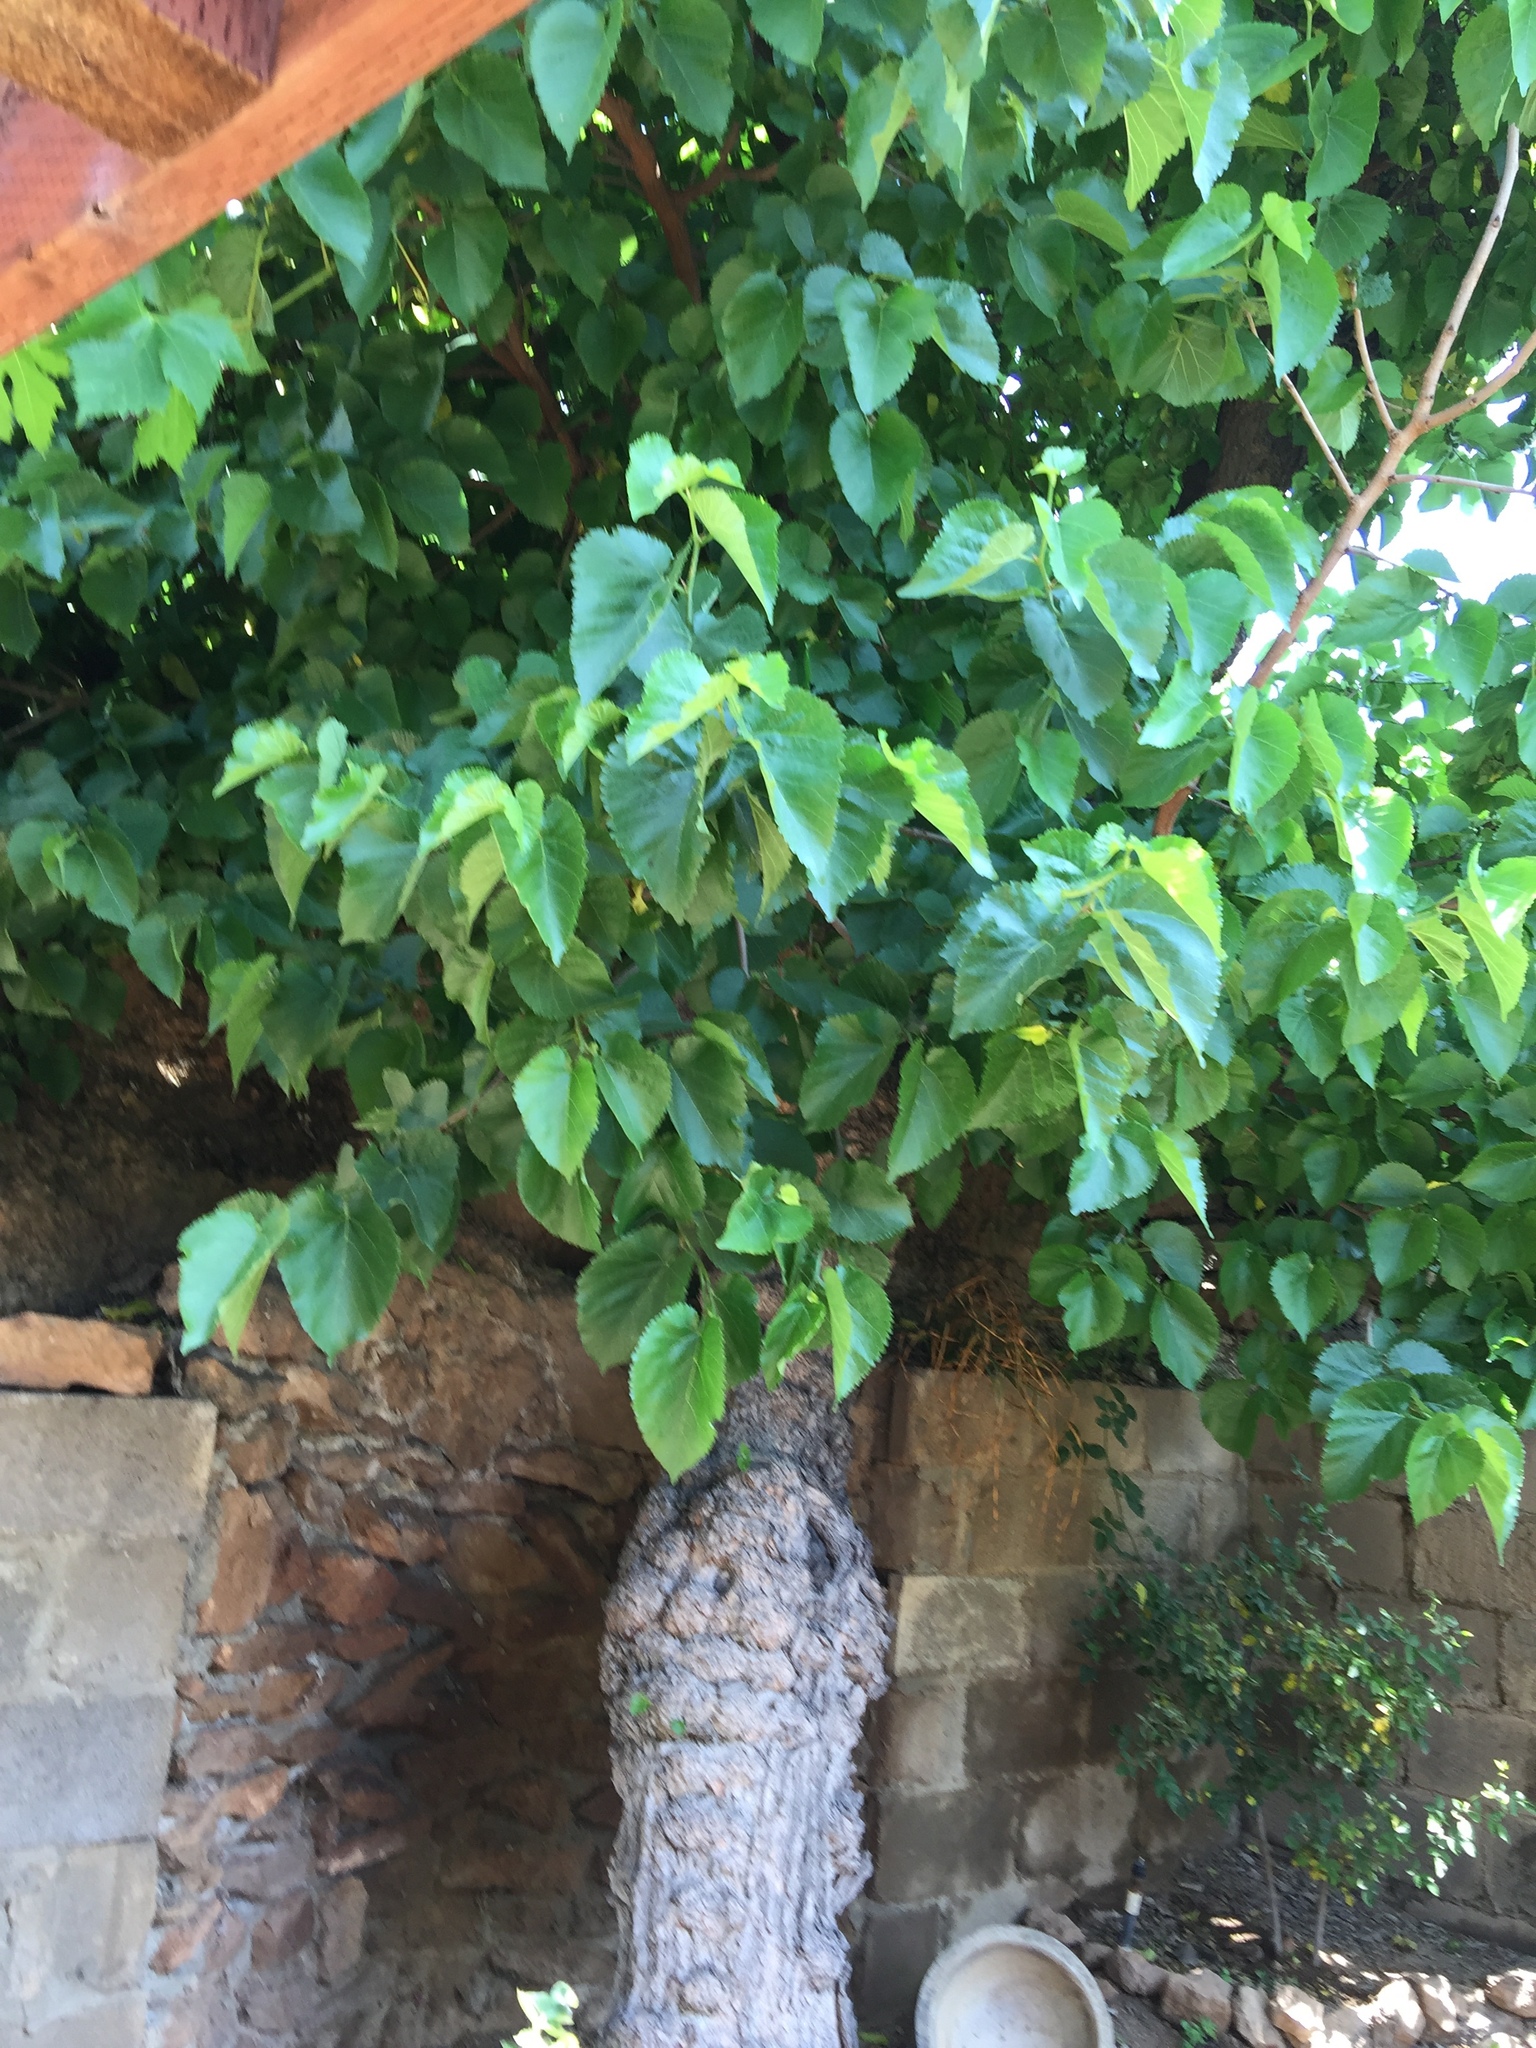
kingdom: Plantae
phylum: Tracheophyta
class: Magnoliopsida
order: Rosales
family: Moraceae
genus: Morus
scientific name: Morus nigra
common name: Black mulberry
